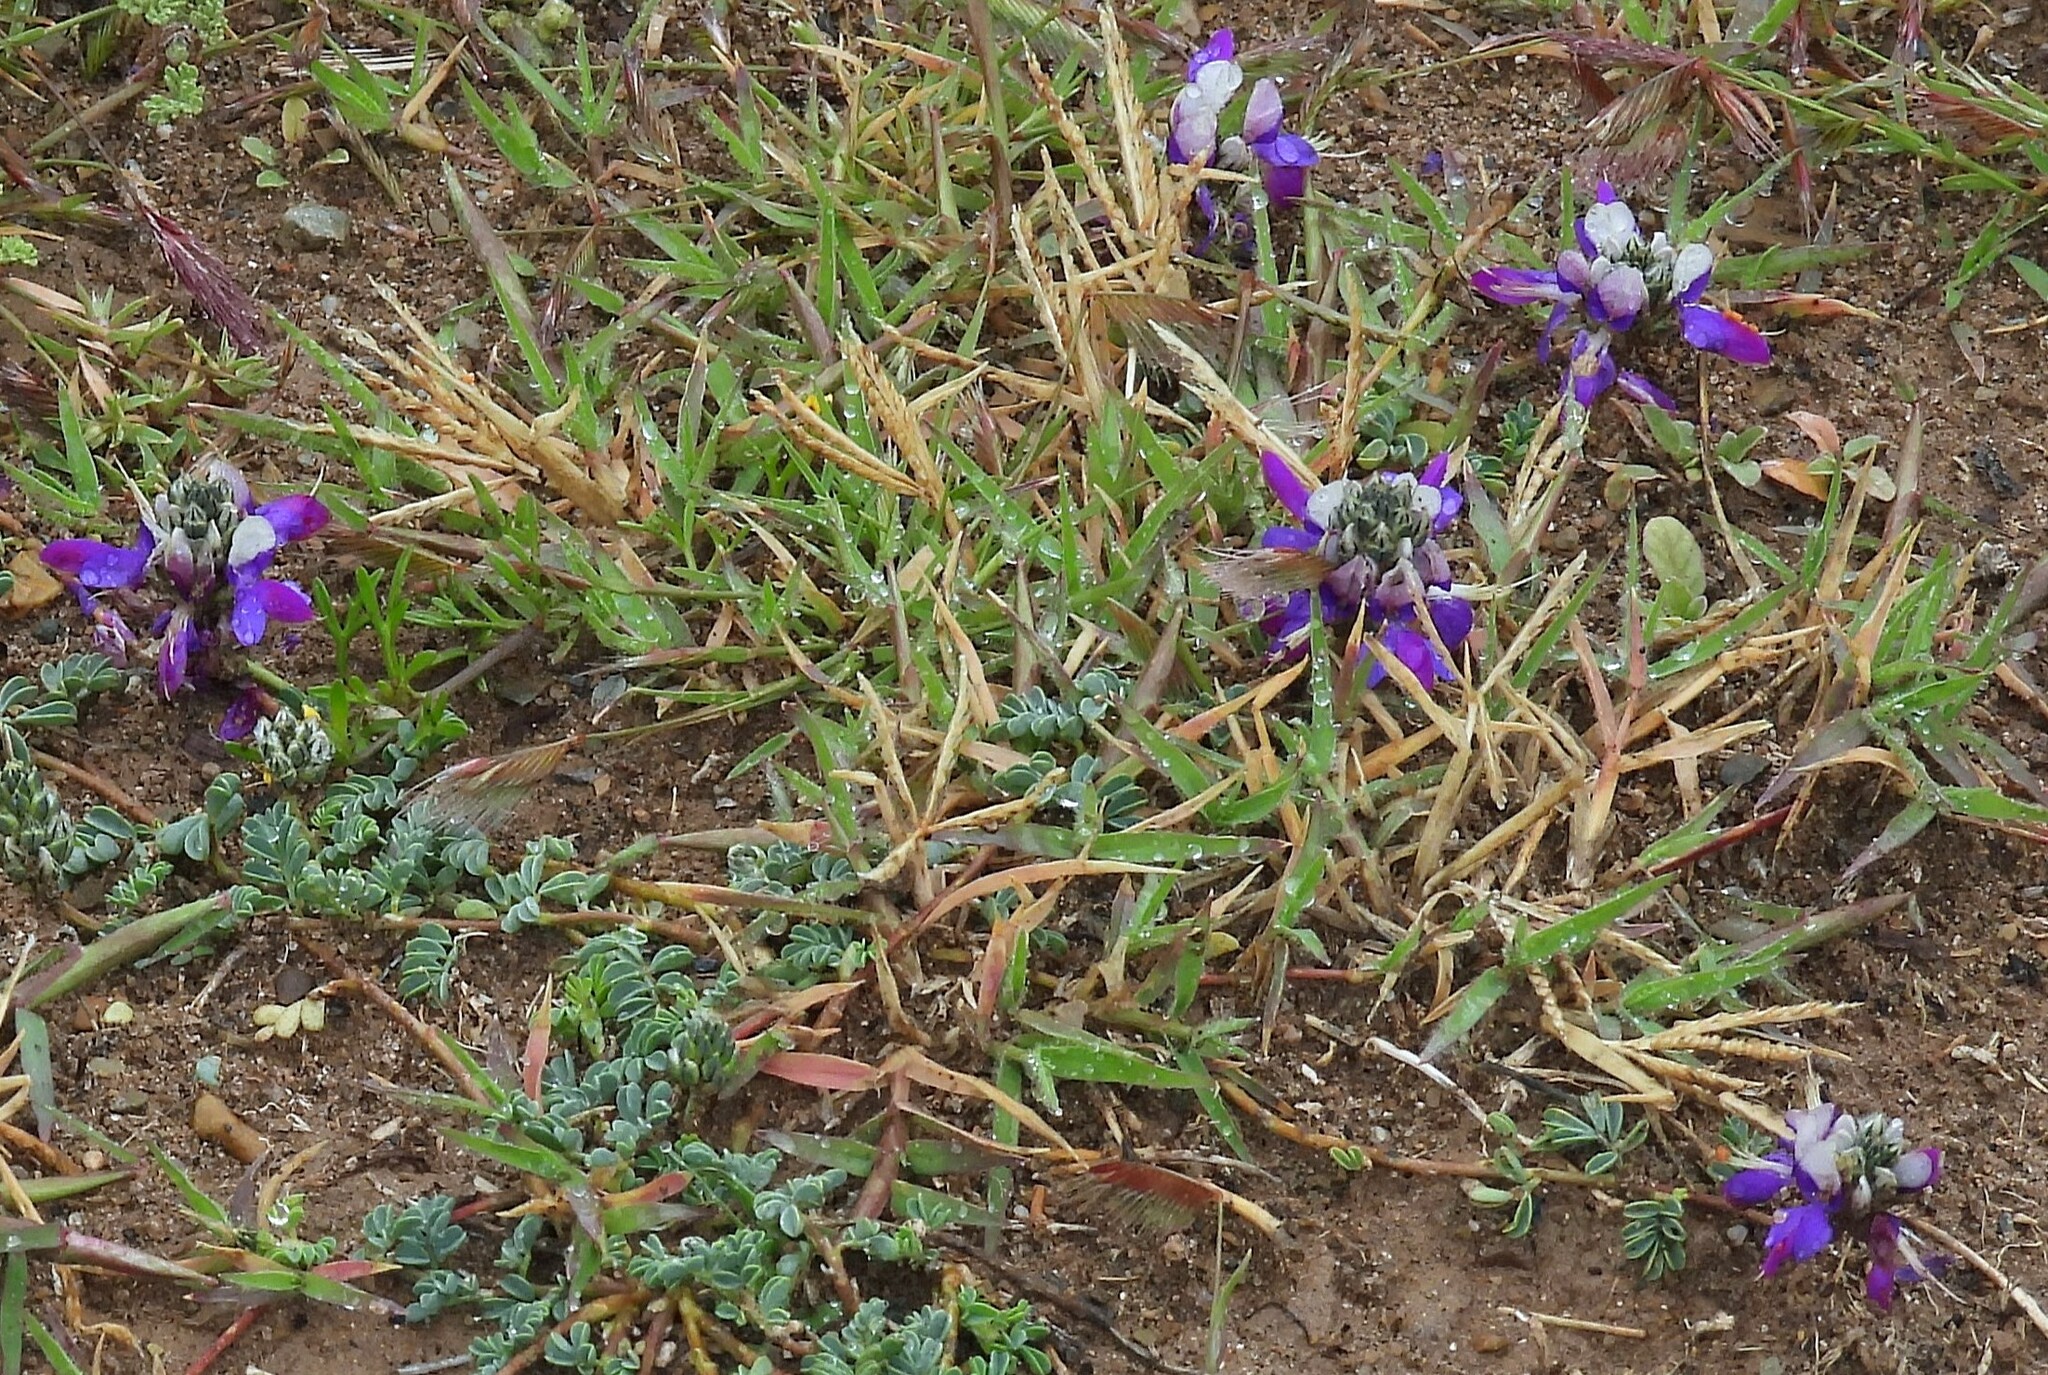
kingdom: Plantae
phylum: Tracheophyta
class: Magnoliopsida
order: Fabales
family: Fabaceae
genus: Dalea
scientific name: Dalea boliviana
